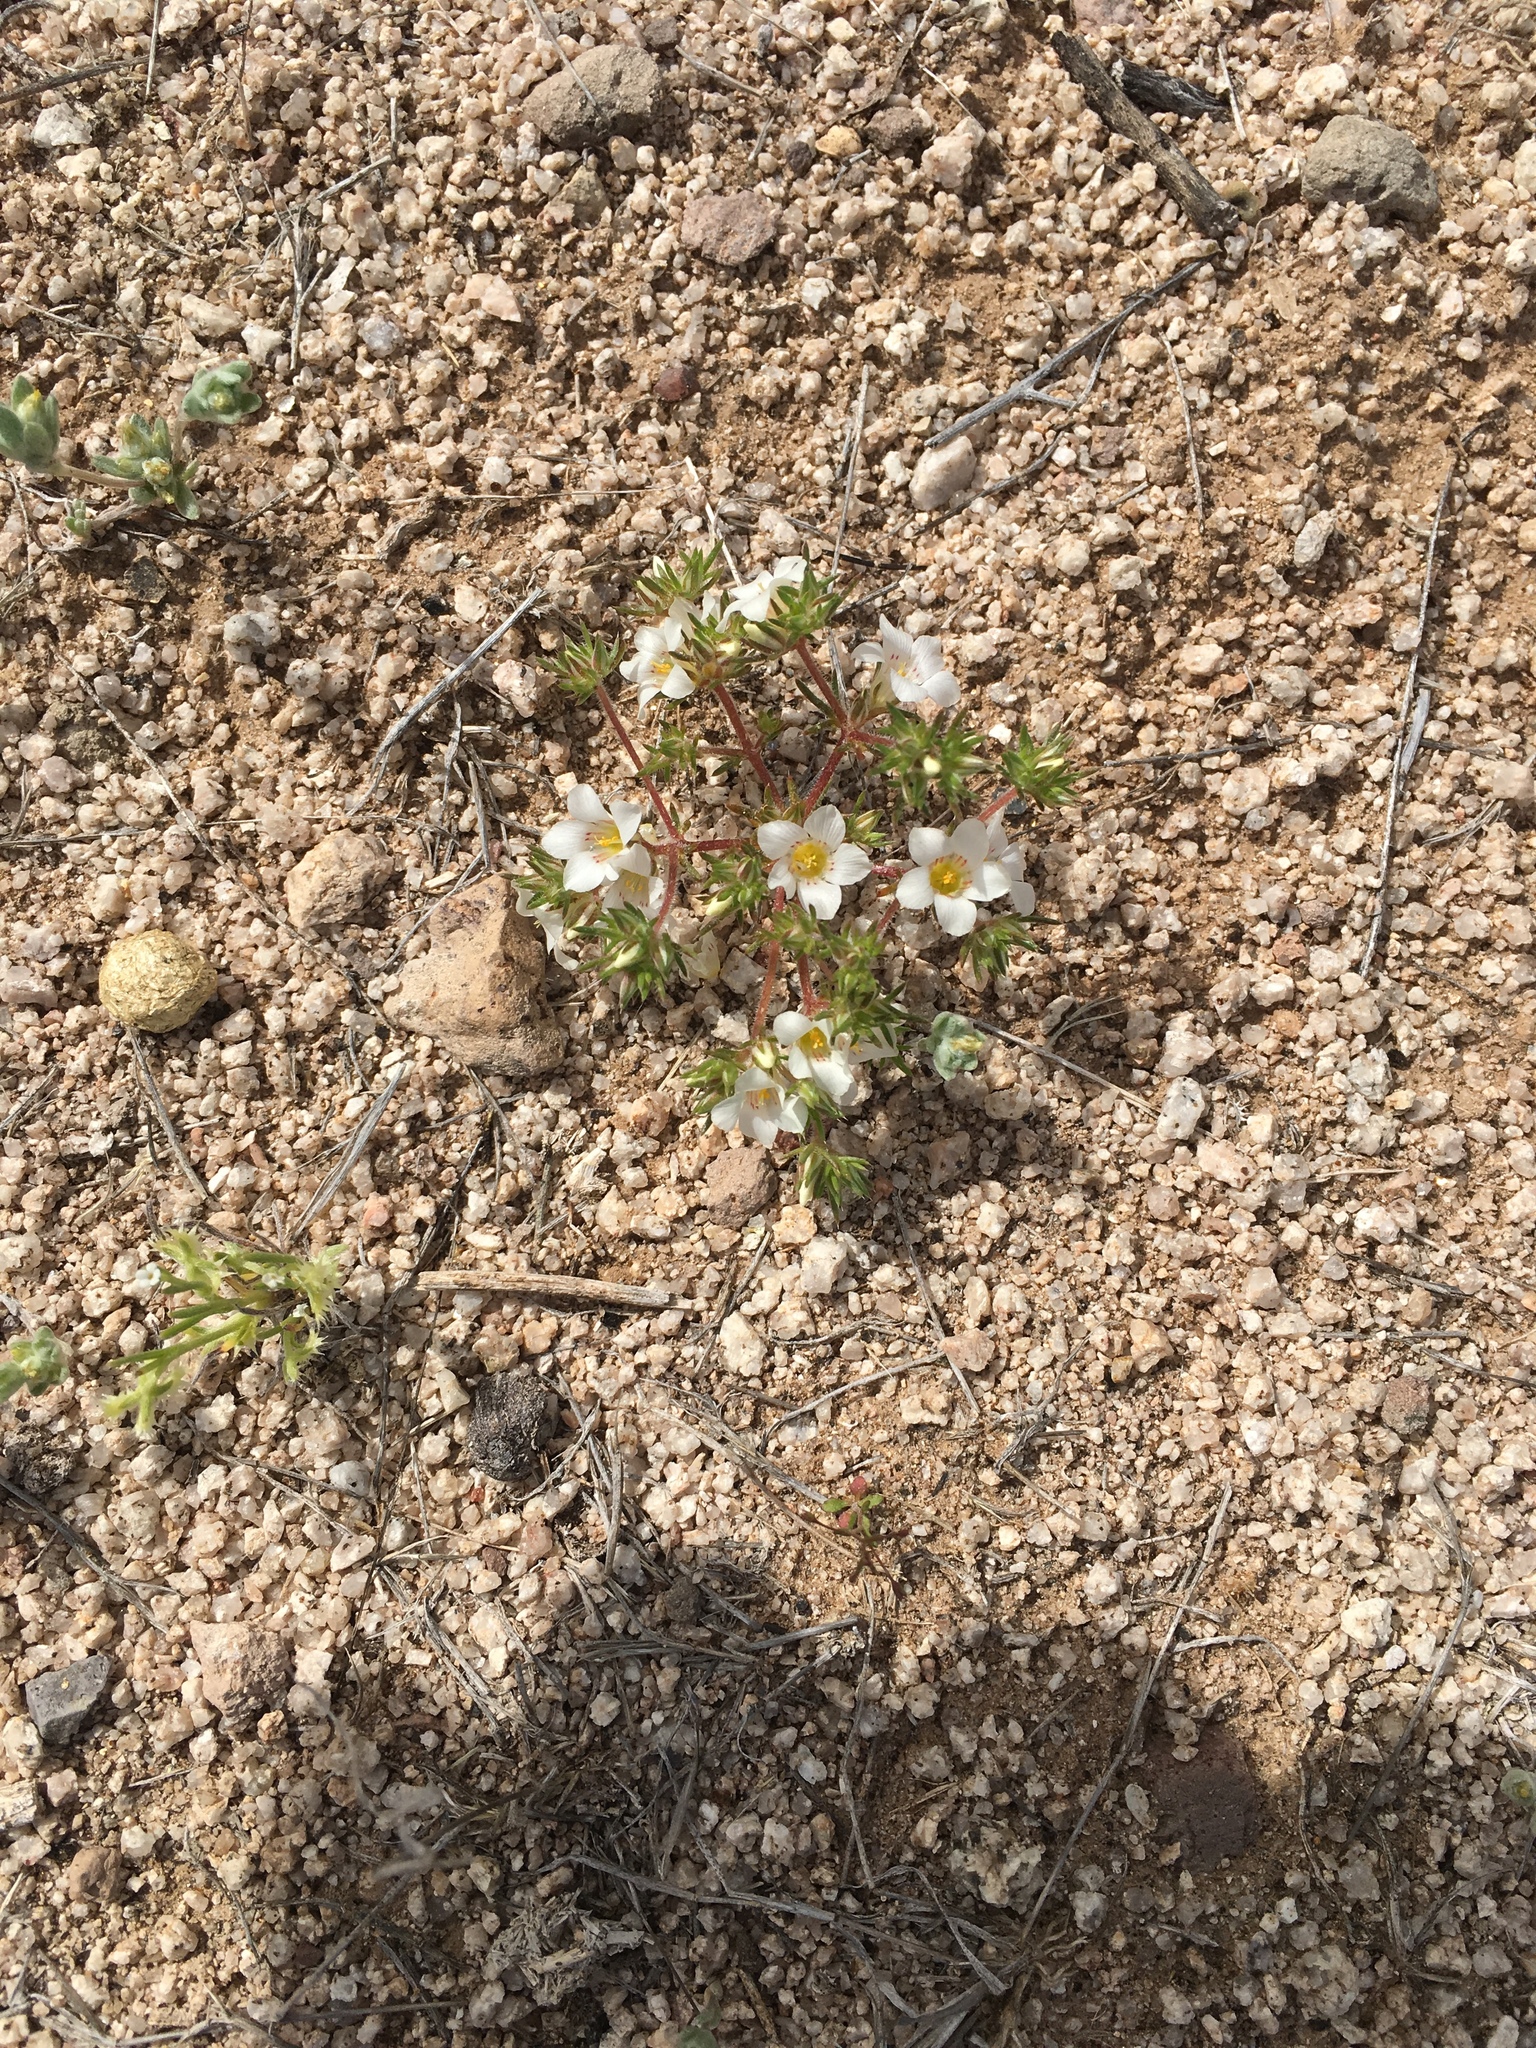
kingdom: Plantae
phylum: Tracheophyta
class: Magnoliopsida
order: Ericales
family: Polemoniaceae
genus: Linanthus
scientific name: Linanthus demissus
